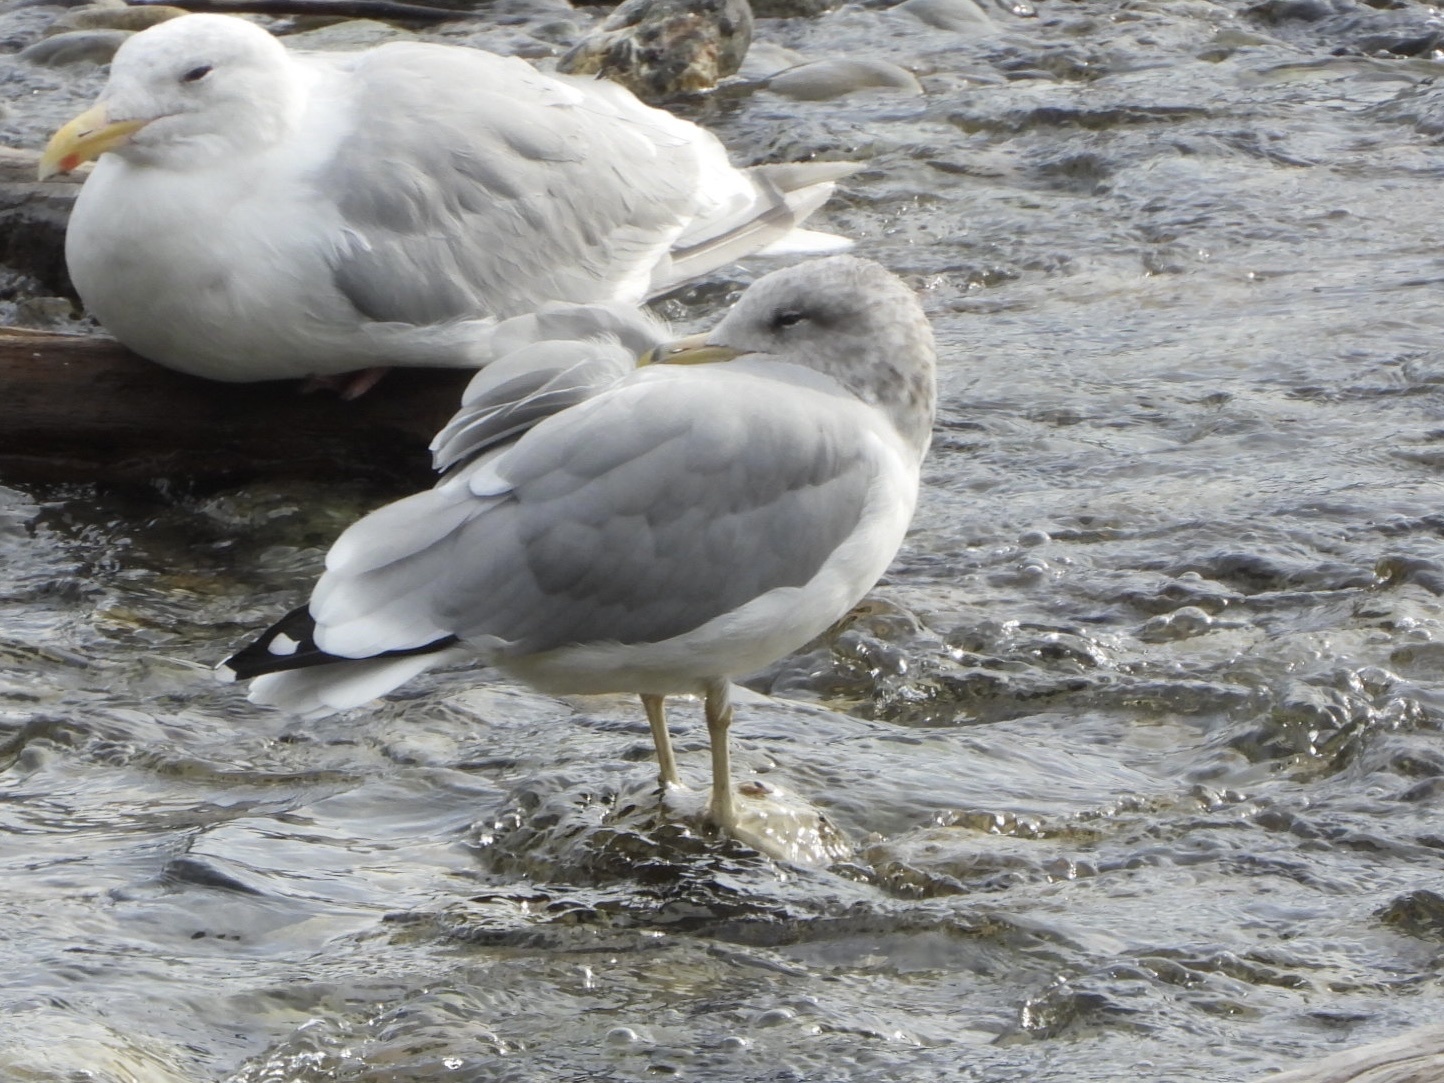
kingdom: Animalia
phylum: Chordata
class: Aves
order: Charadriiformes
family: Laridae
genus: Larus
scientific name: Larus californicus
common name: California gull
